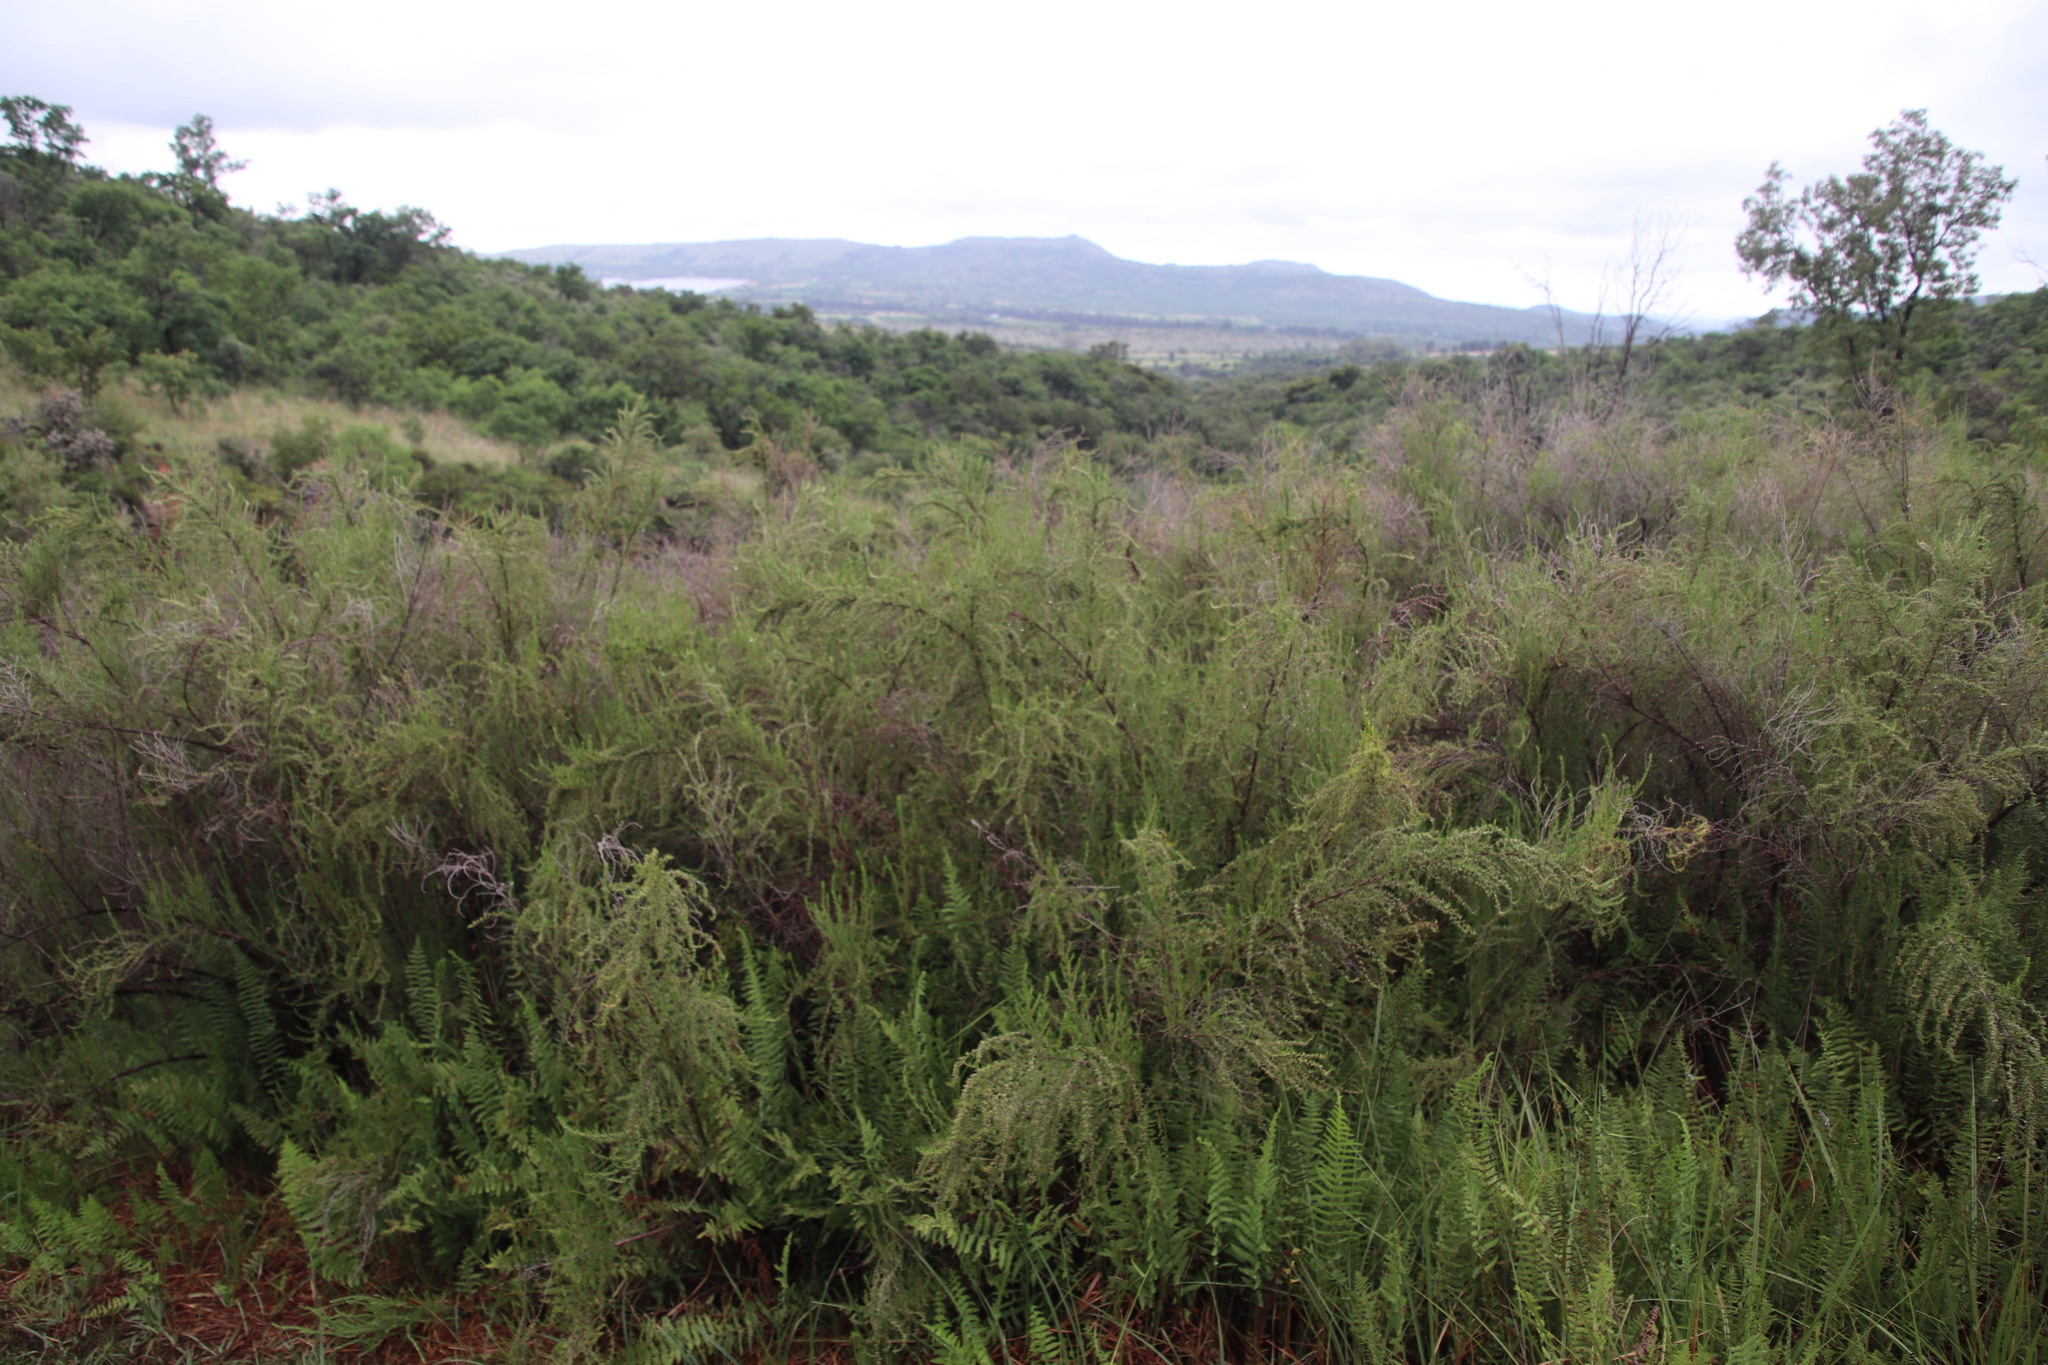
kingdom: Plantae
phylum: Tracheophyta
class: Magnoliopsida
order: Rosales
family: Rosaceae
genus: Cliffortia
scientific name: Cliffortia linearifolia
